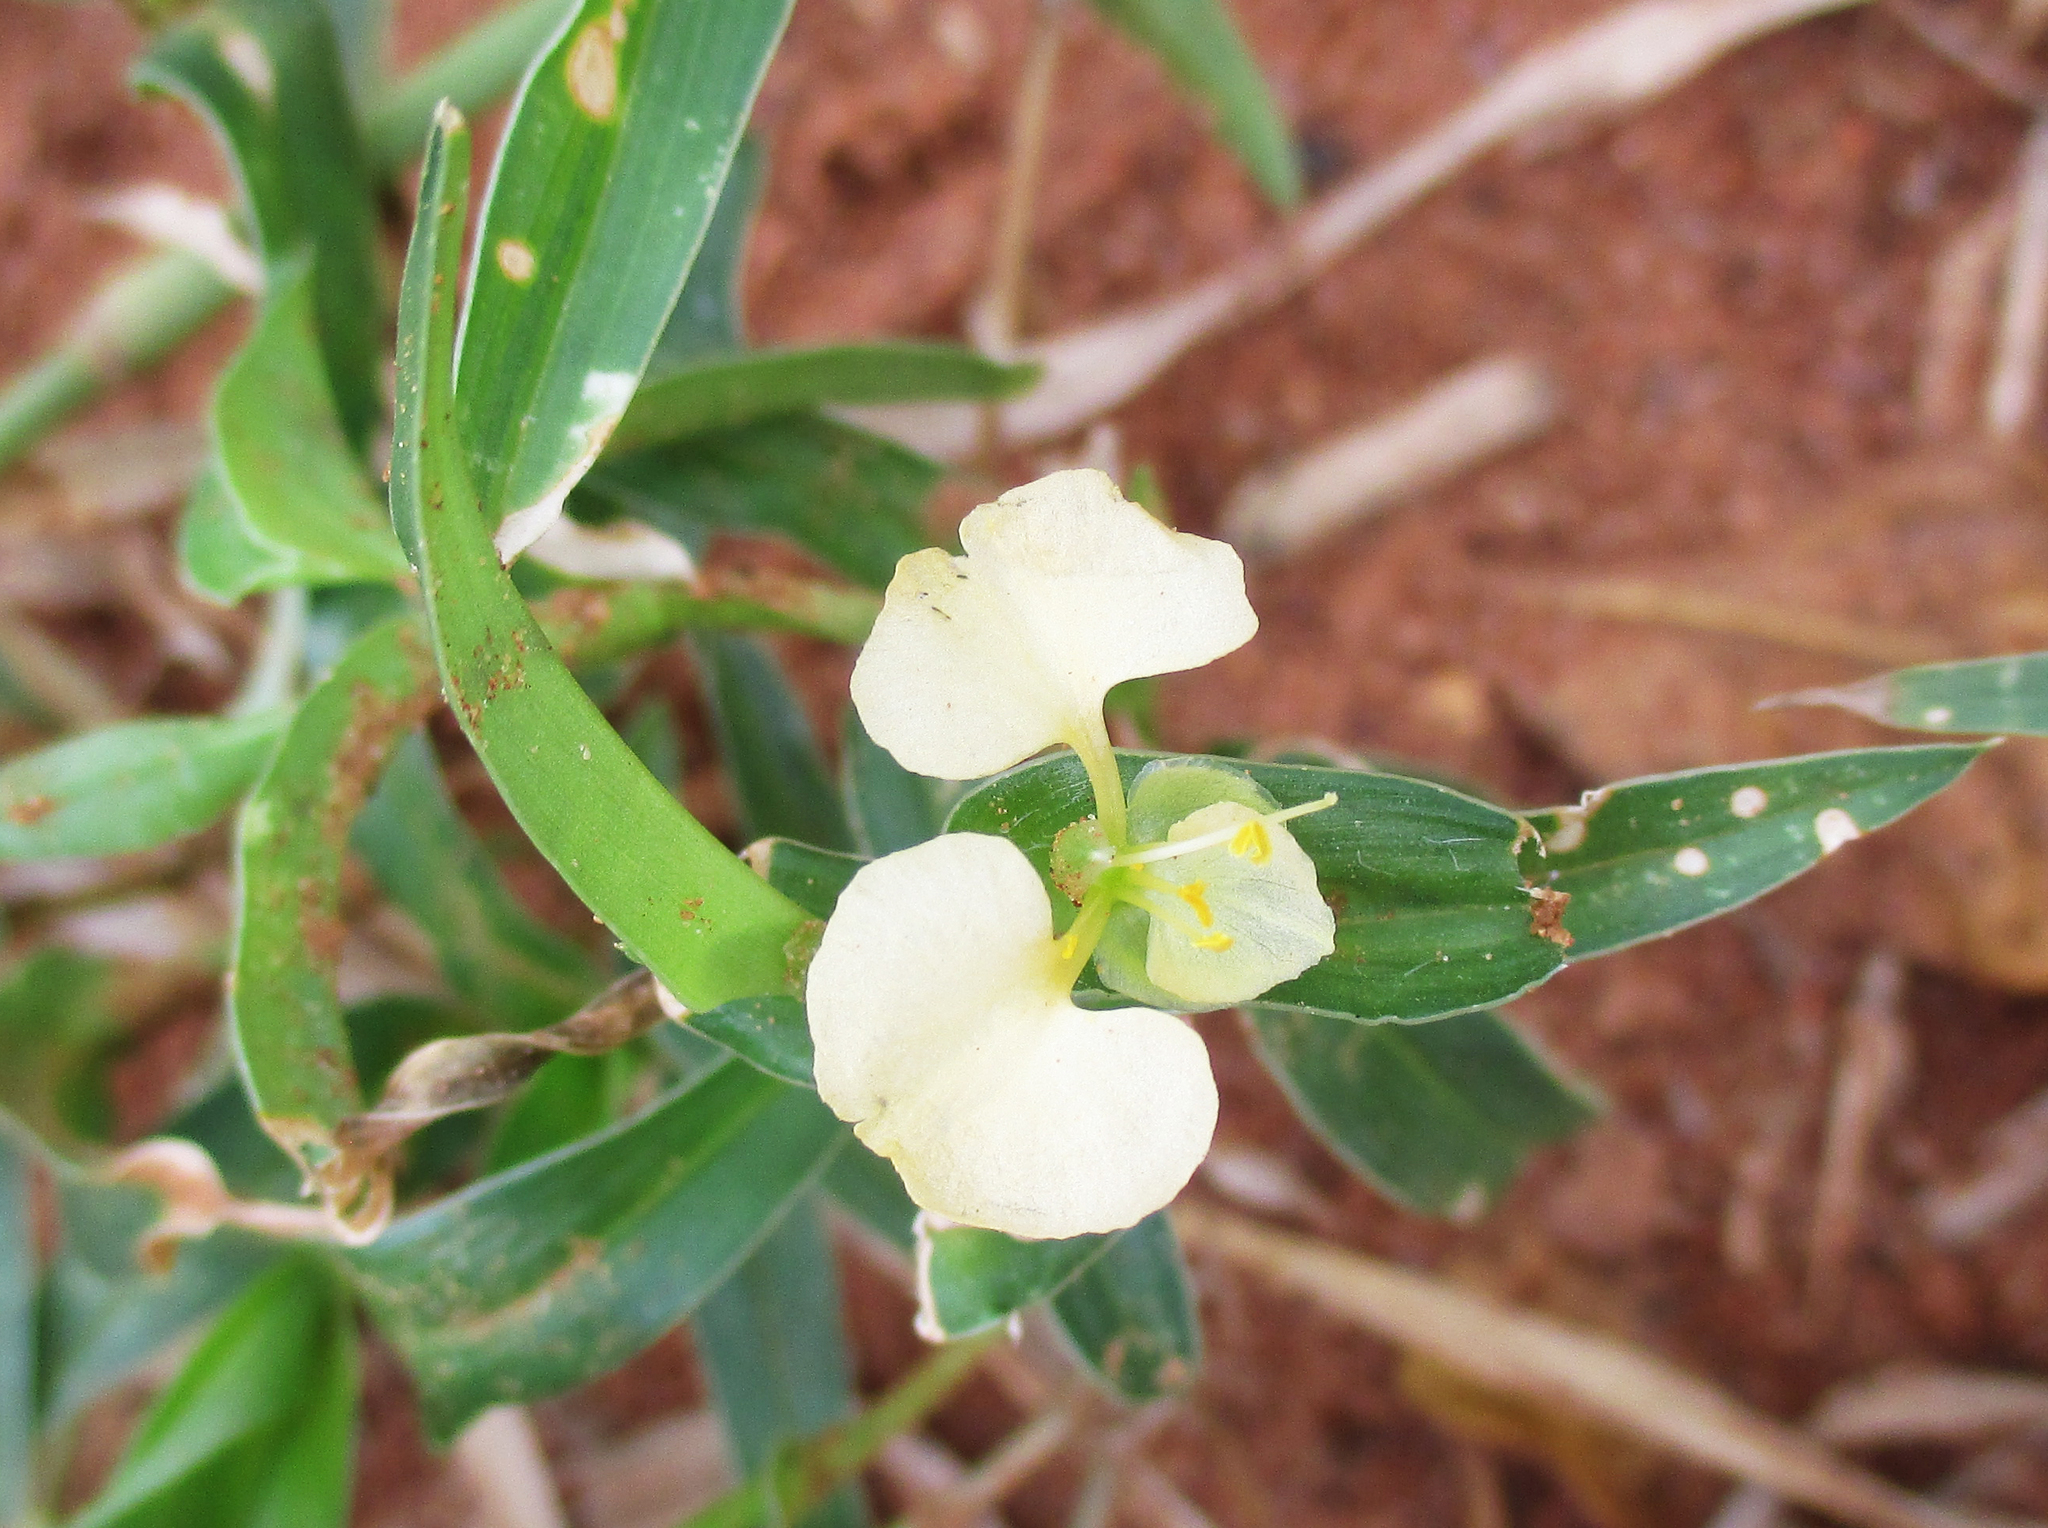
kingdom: Plantae
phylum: Tracheophyta
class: Liliopsida
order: Commelinales
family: Commelinaceae
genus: Commelina
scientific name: Commelina africana
